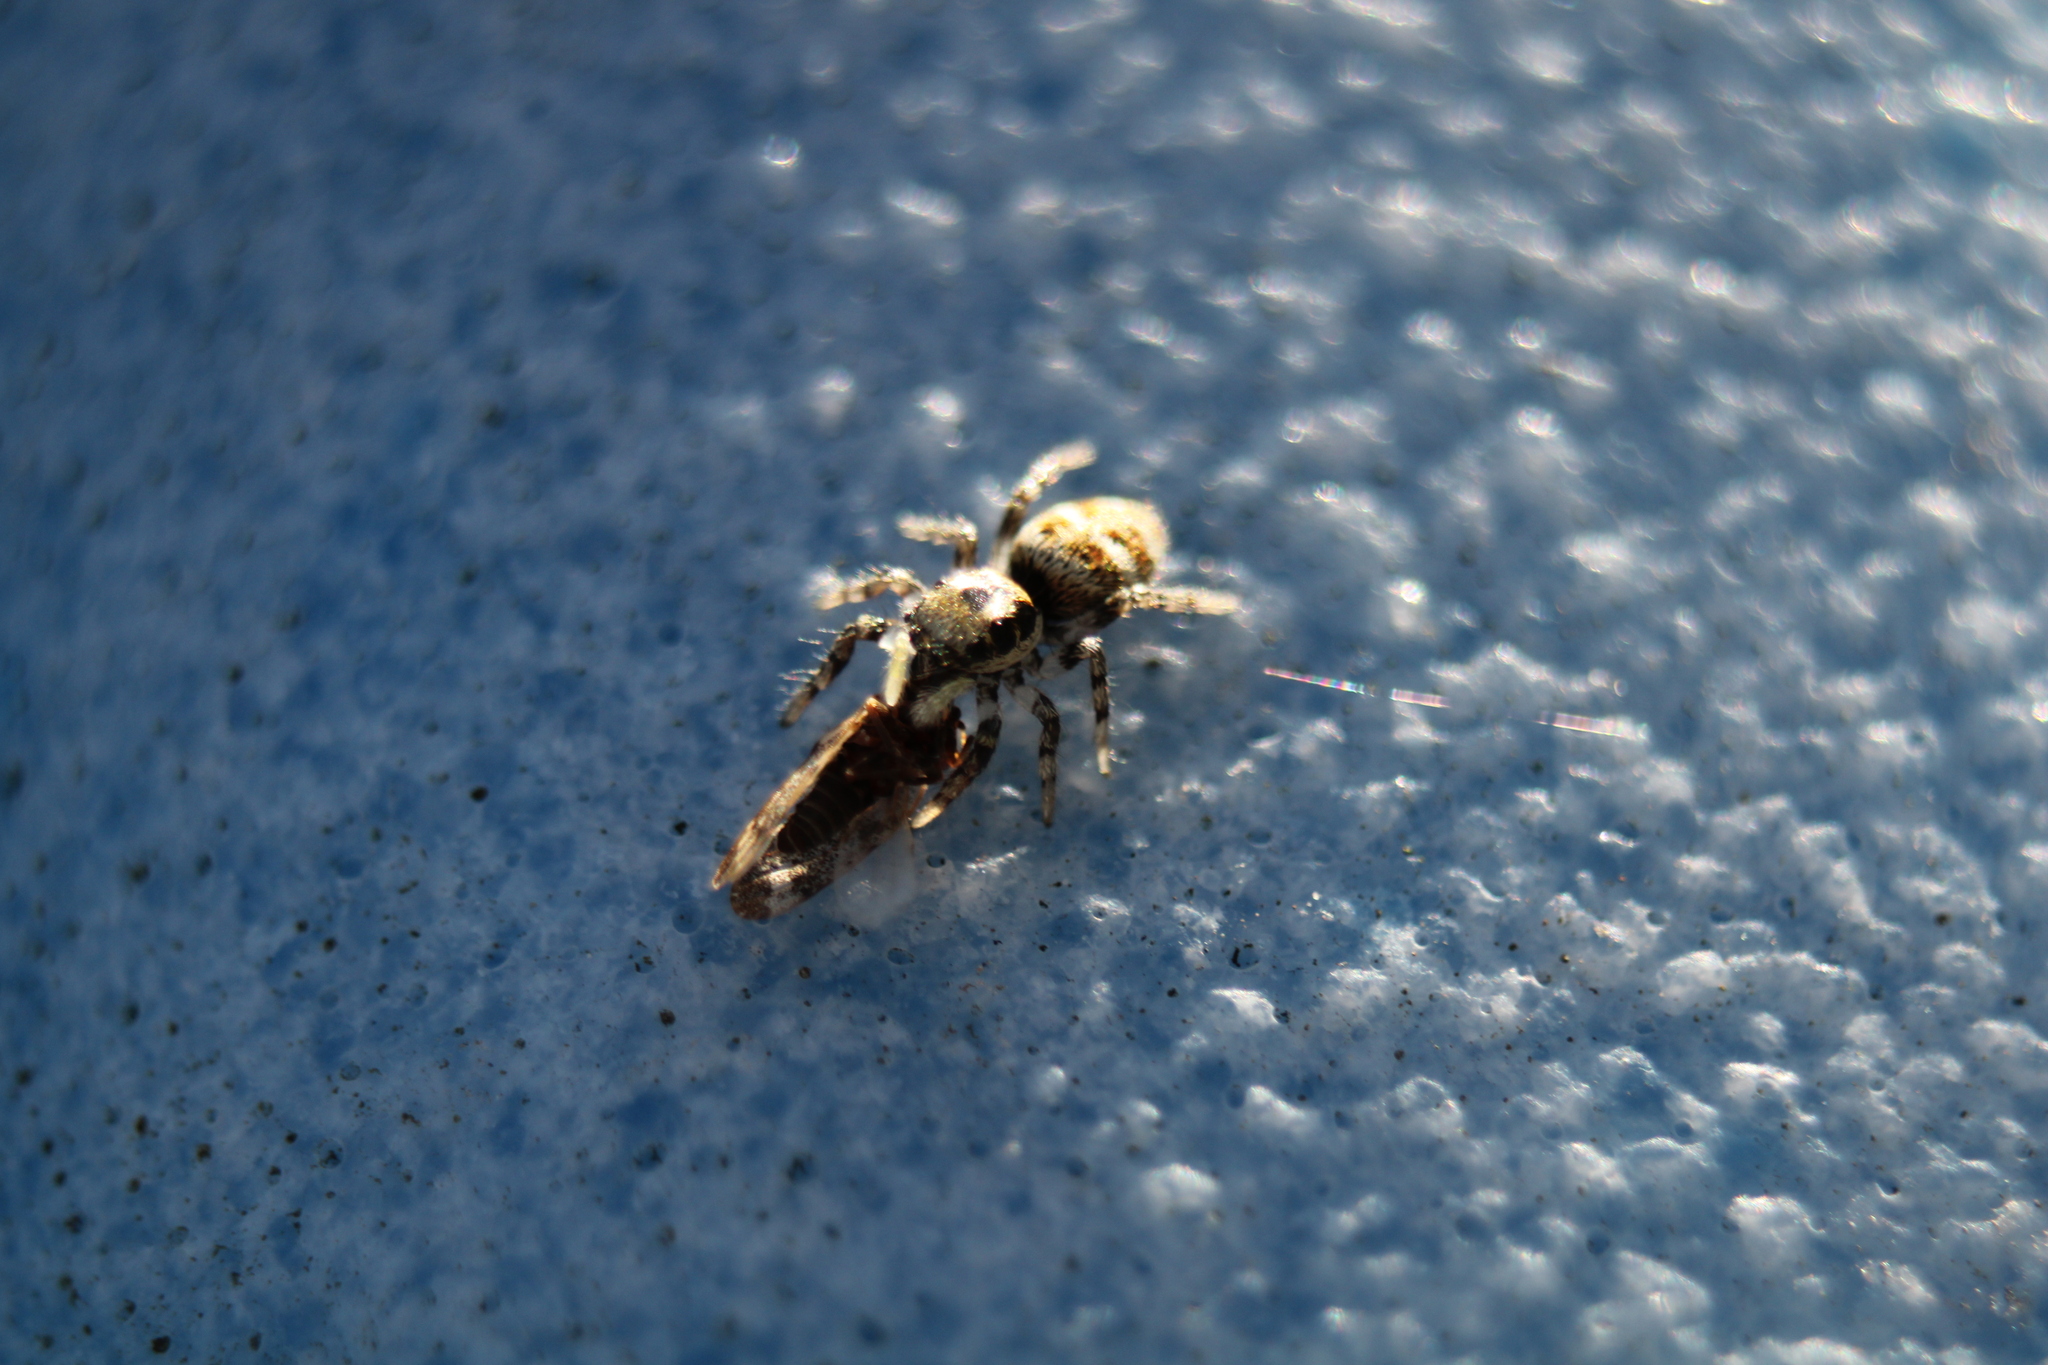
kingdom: Animalia
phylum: Arthropoda
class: Arachnida
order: Araneae
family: Salticidae
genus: Salticus
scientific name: Salticus scenicus
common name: Zebra jumper
